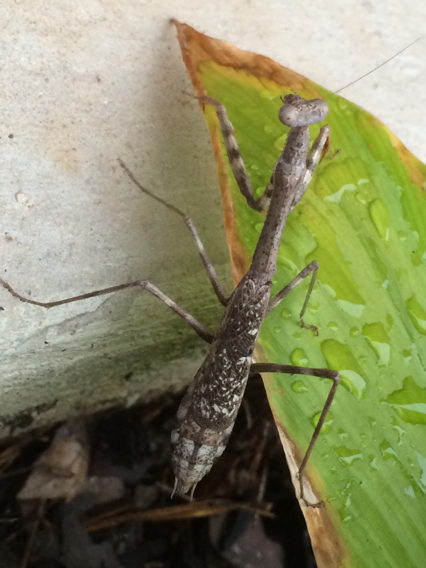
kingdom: Animalia
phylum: Arthropoda
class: Insecta
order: Mantodea
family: Mantidae
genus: Stagmomantis
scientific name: Stagmomantis carolina
